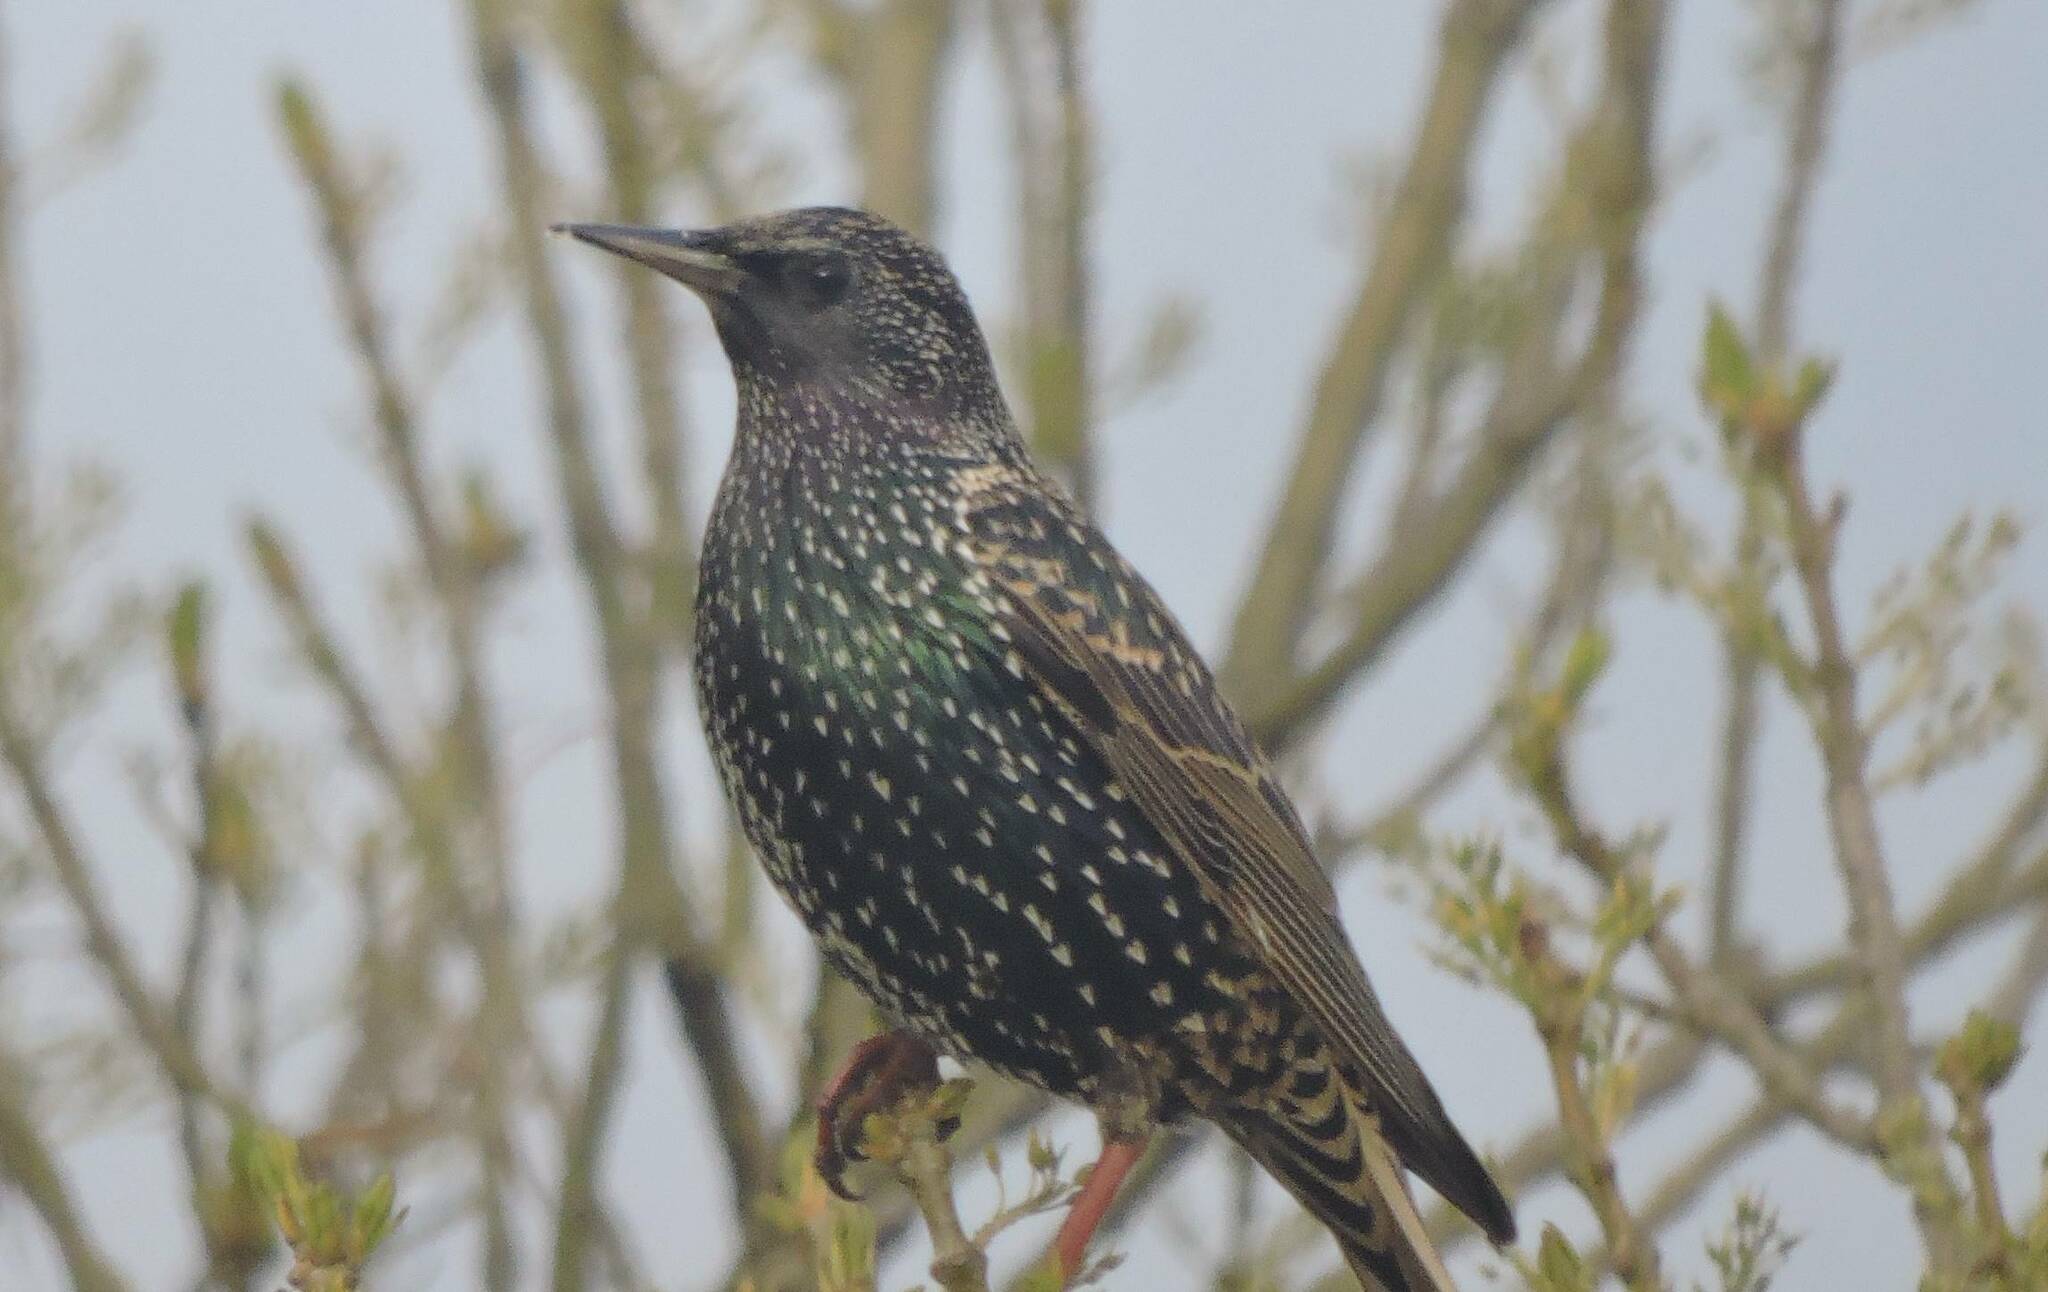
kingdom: Animalia
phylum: Chordata
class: Aves
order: Passeriformes
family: Sturnidae
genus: Sturnus
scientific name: Sturnus vulgaris
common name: Common starling
